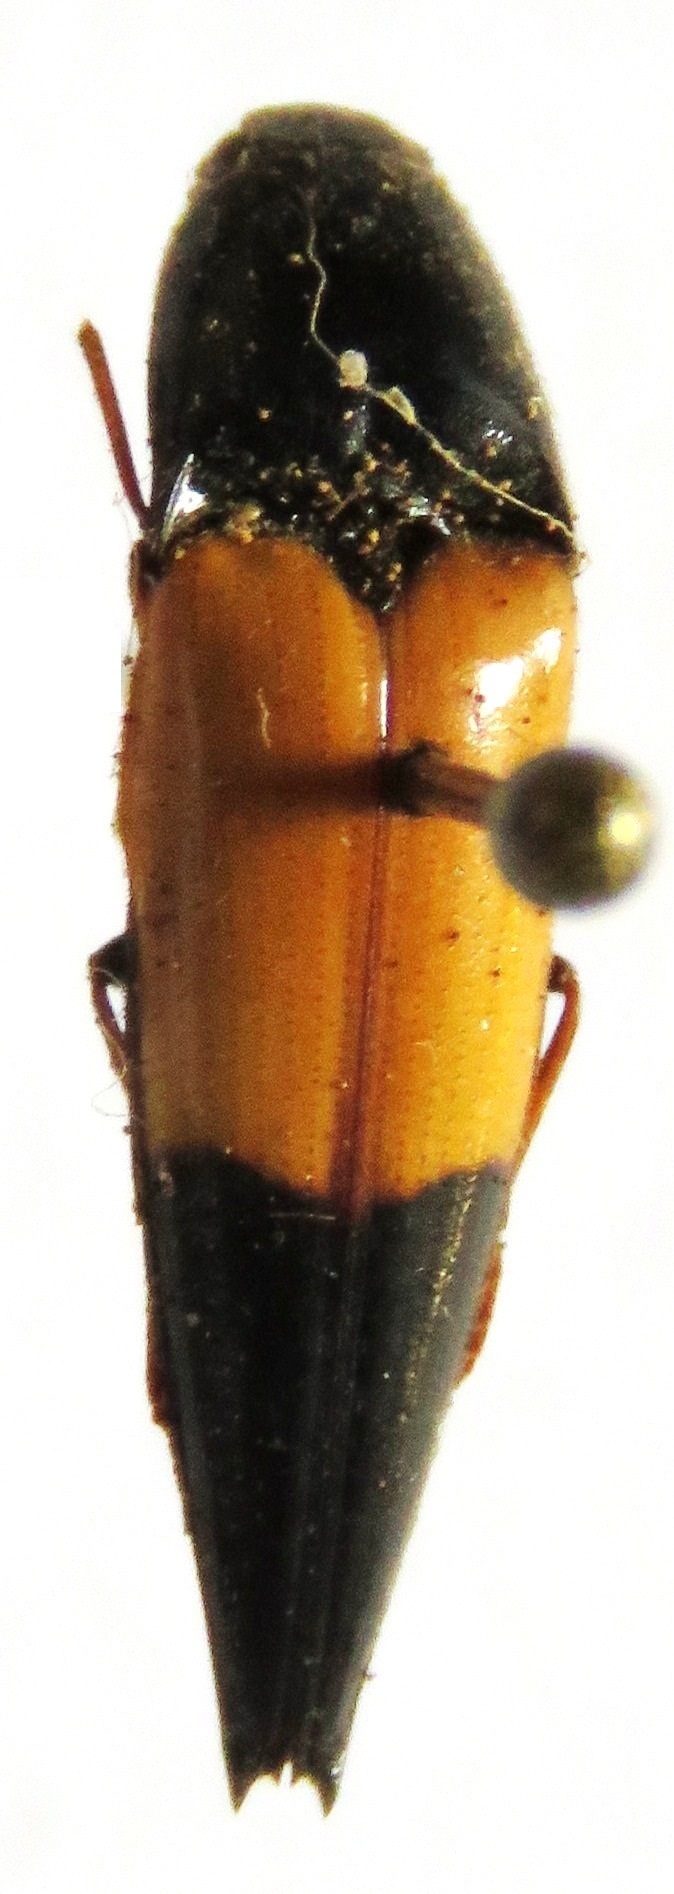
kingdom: Animalia
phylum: Arthropoda
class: Insecta
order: Coleoptera
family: Elateridae
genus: Ypsilosthetus
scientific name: Ypsilosthetus
